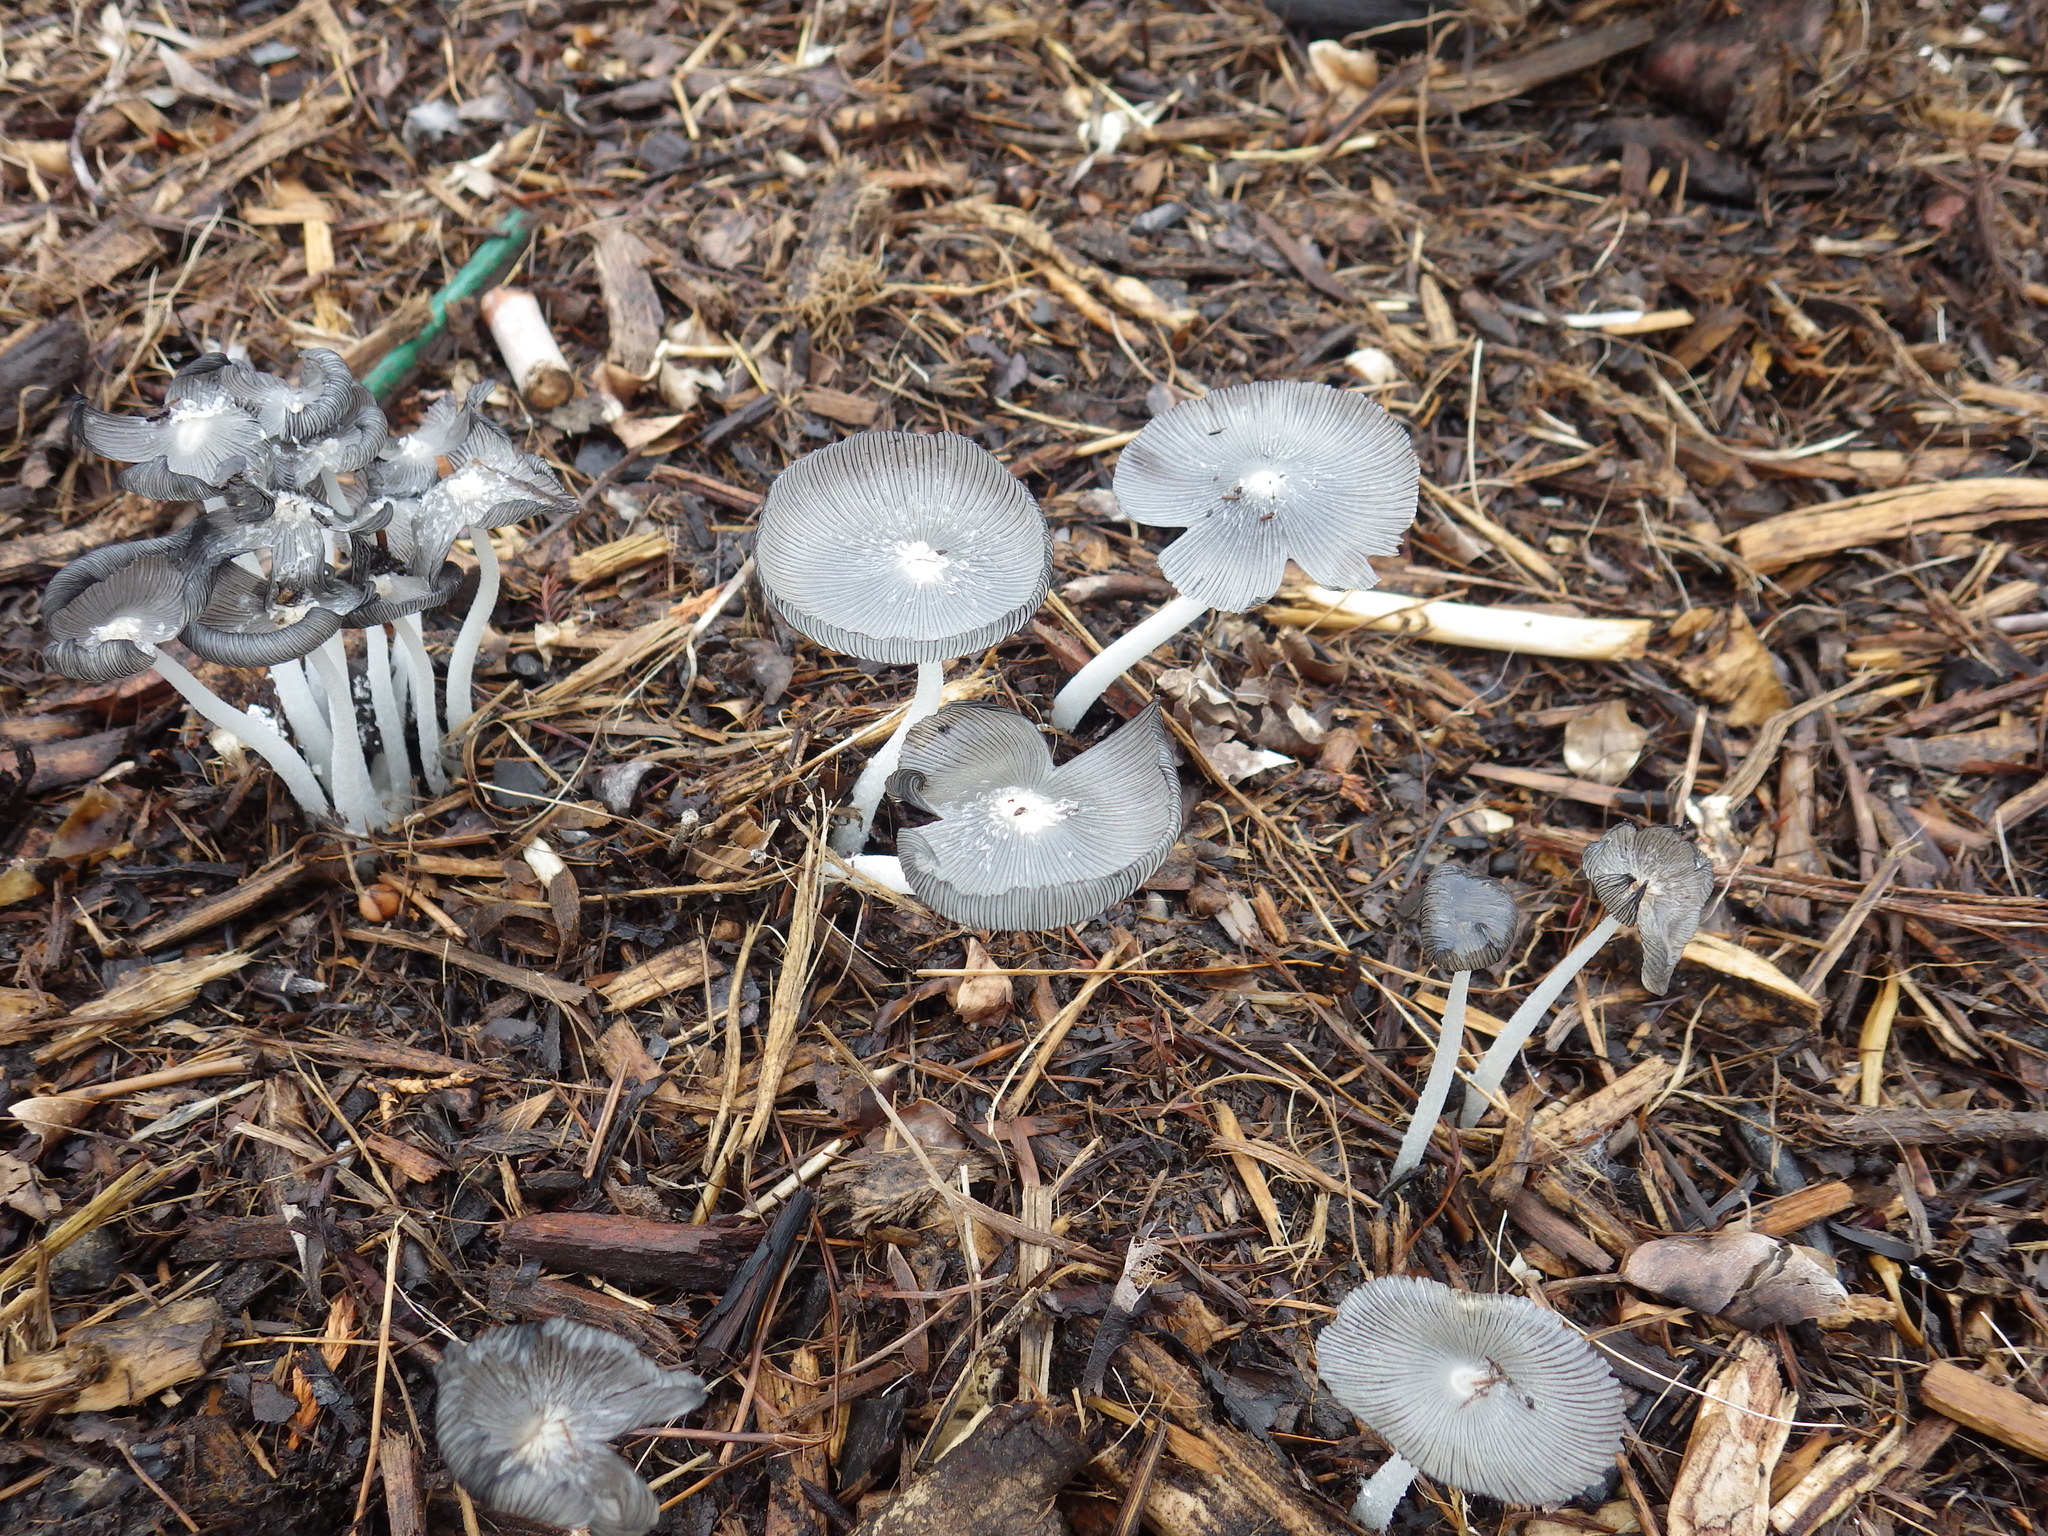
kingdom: Fungi
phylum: Basidiomycota
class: Agaricomycetes
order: Agaricales
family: Psathyrellaceae
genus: Coprinopsis
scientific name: Coprinopsis lagopus
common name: Hare'sfoot inkcap
